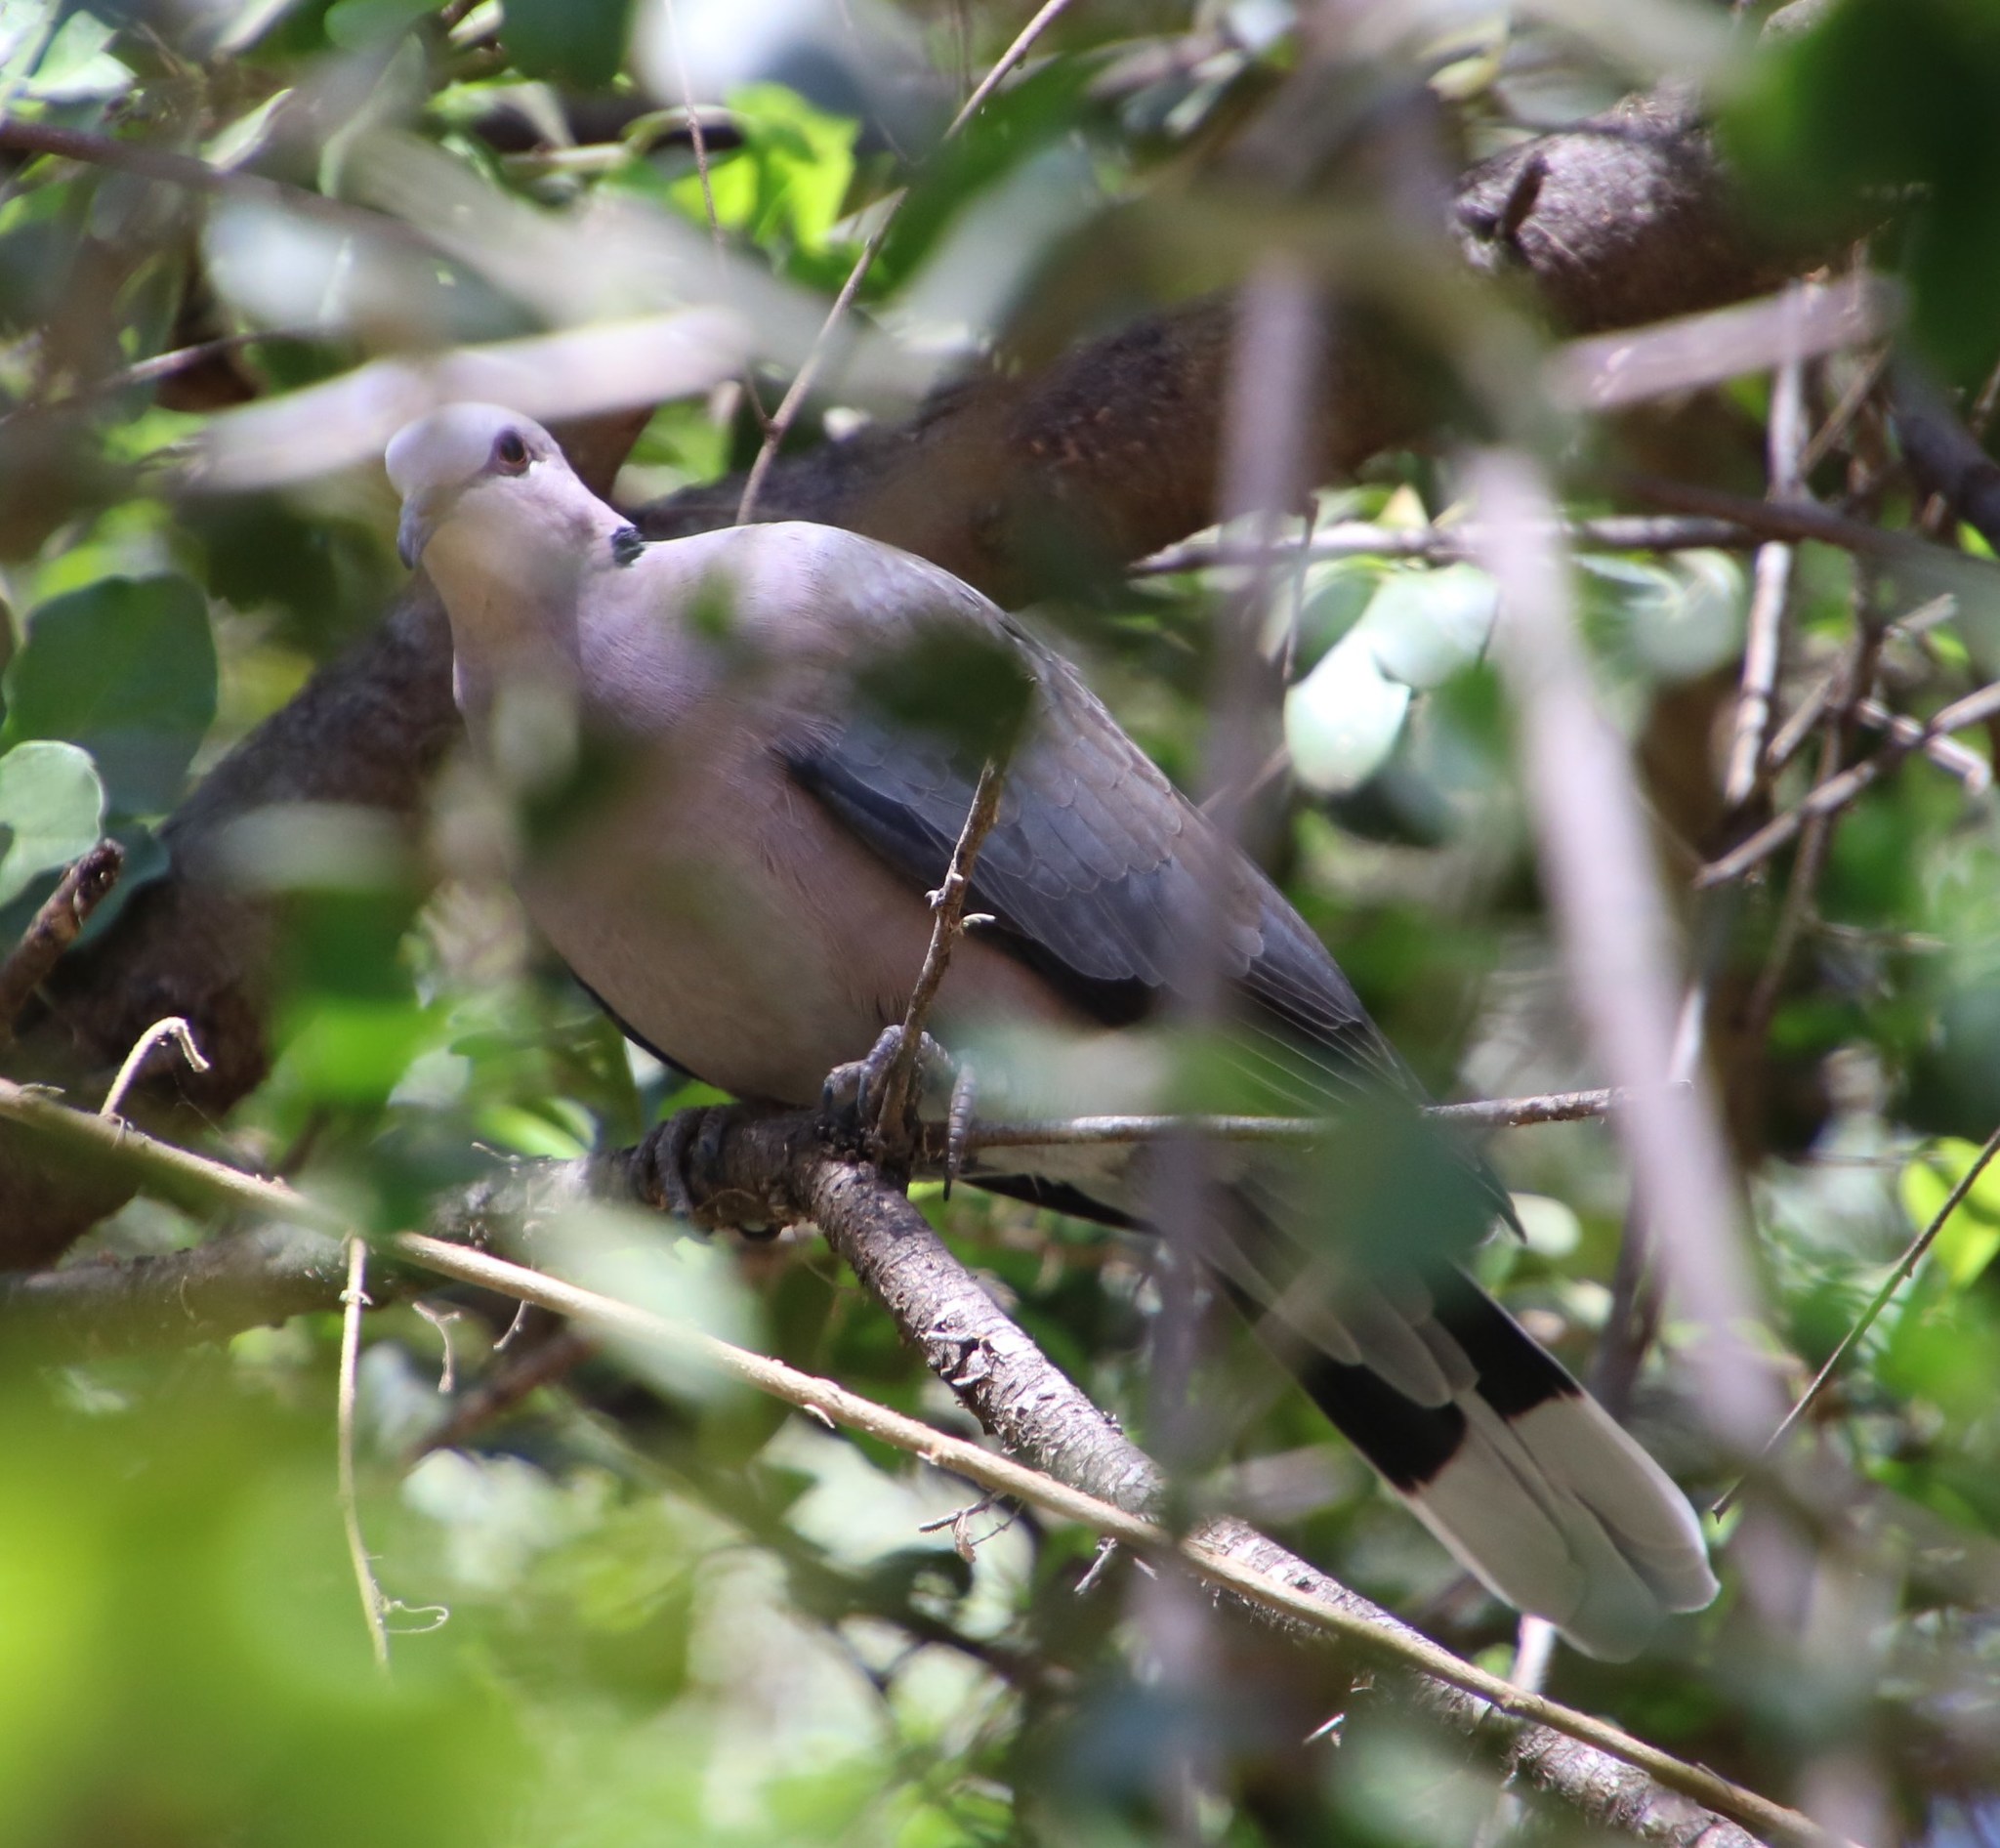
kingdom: Animalia
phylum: Chordata
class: Aves
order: Columbiformes
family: Columbidae
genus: Streptopelia
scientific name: Streptopelia semitorquata
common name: Red-eyed dove
